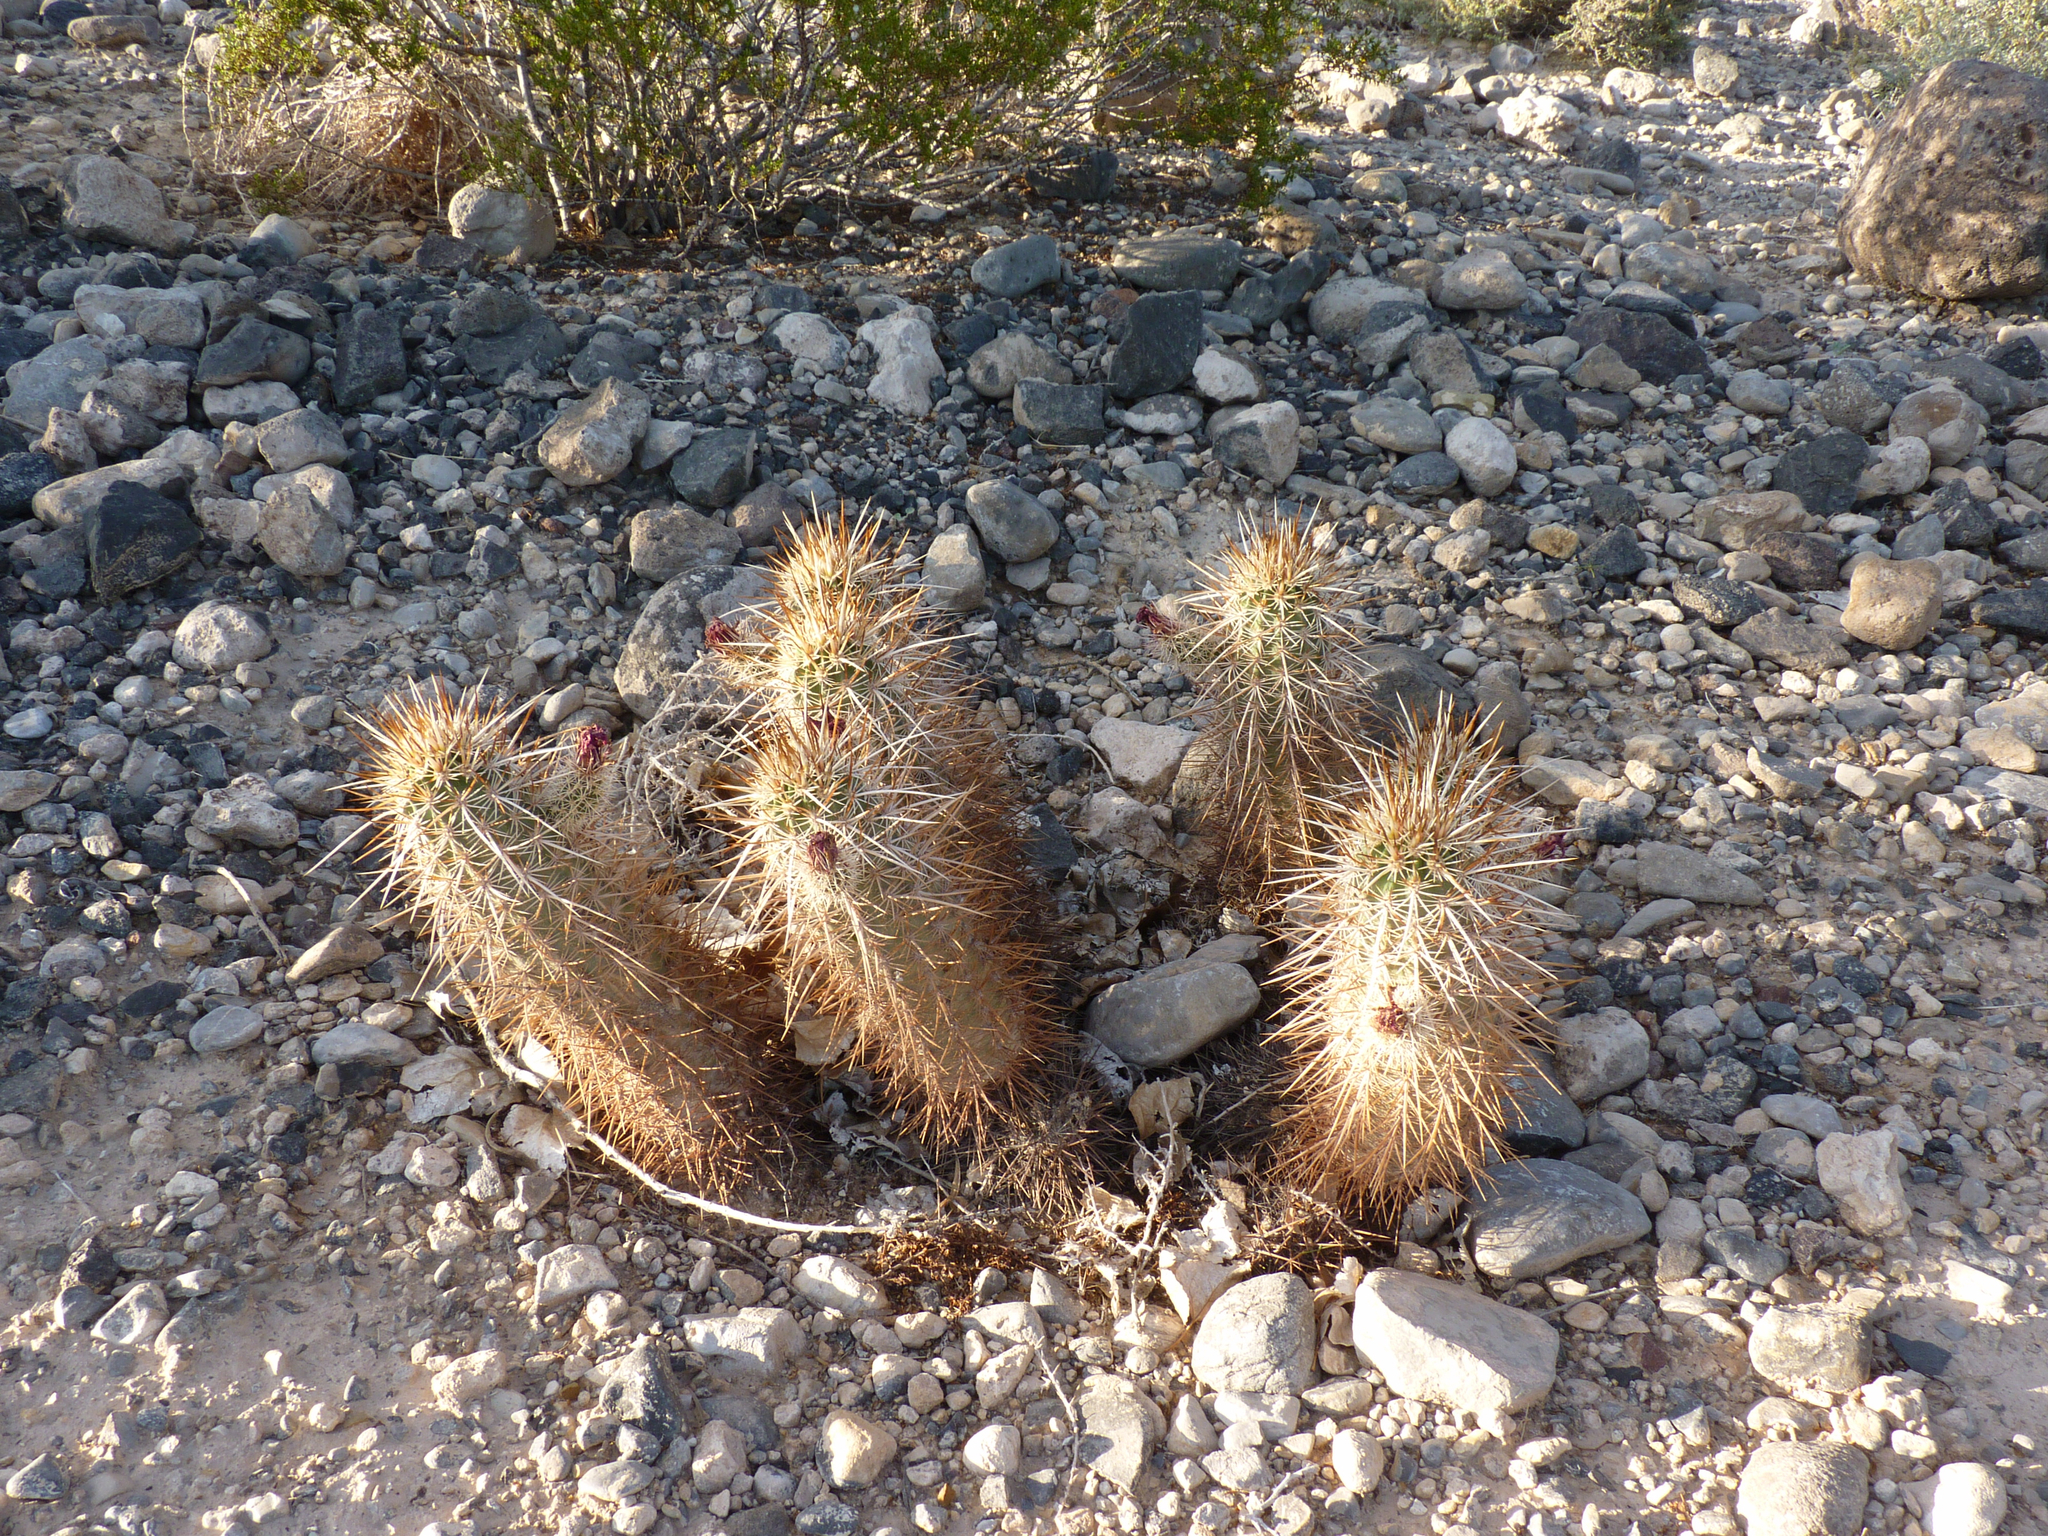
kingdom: Plantae
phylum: Tracheophyta
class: Magnoliopsida
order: Caryophyllales
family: Cactaceae
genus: Echinocereus
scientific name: Echinocereus engelmannii
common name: Engelmann's hedgehog cactus
